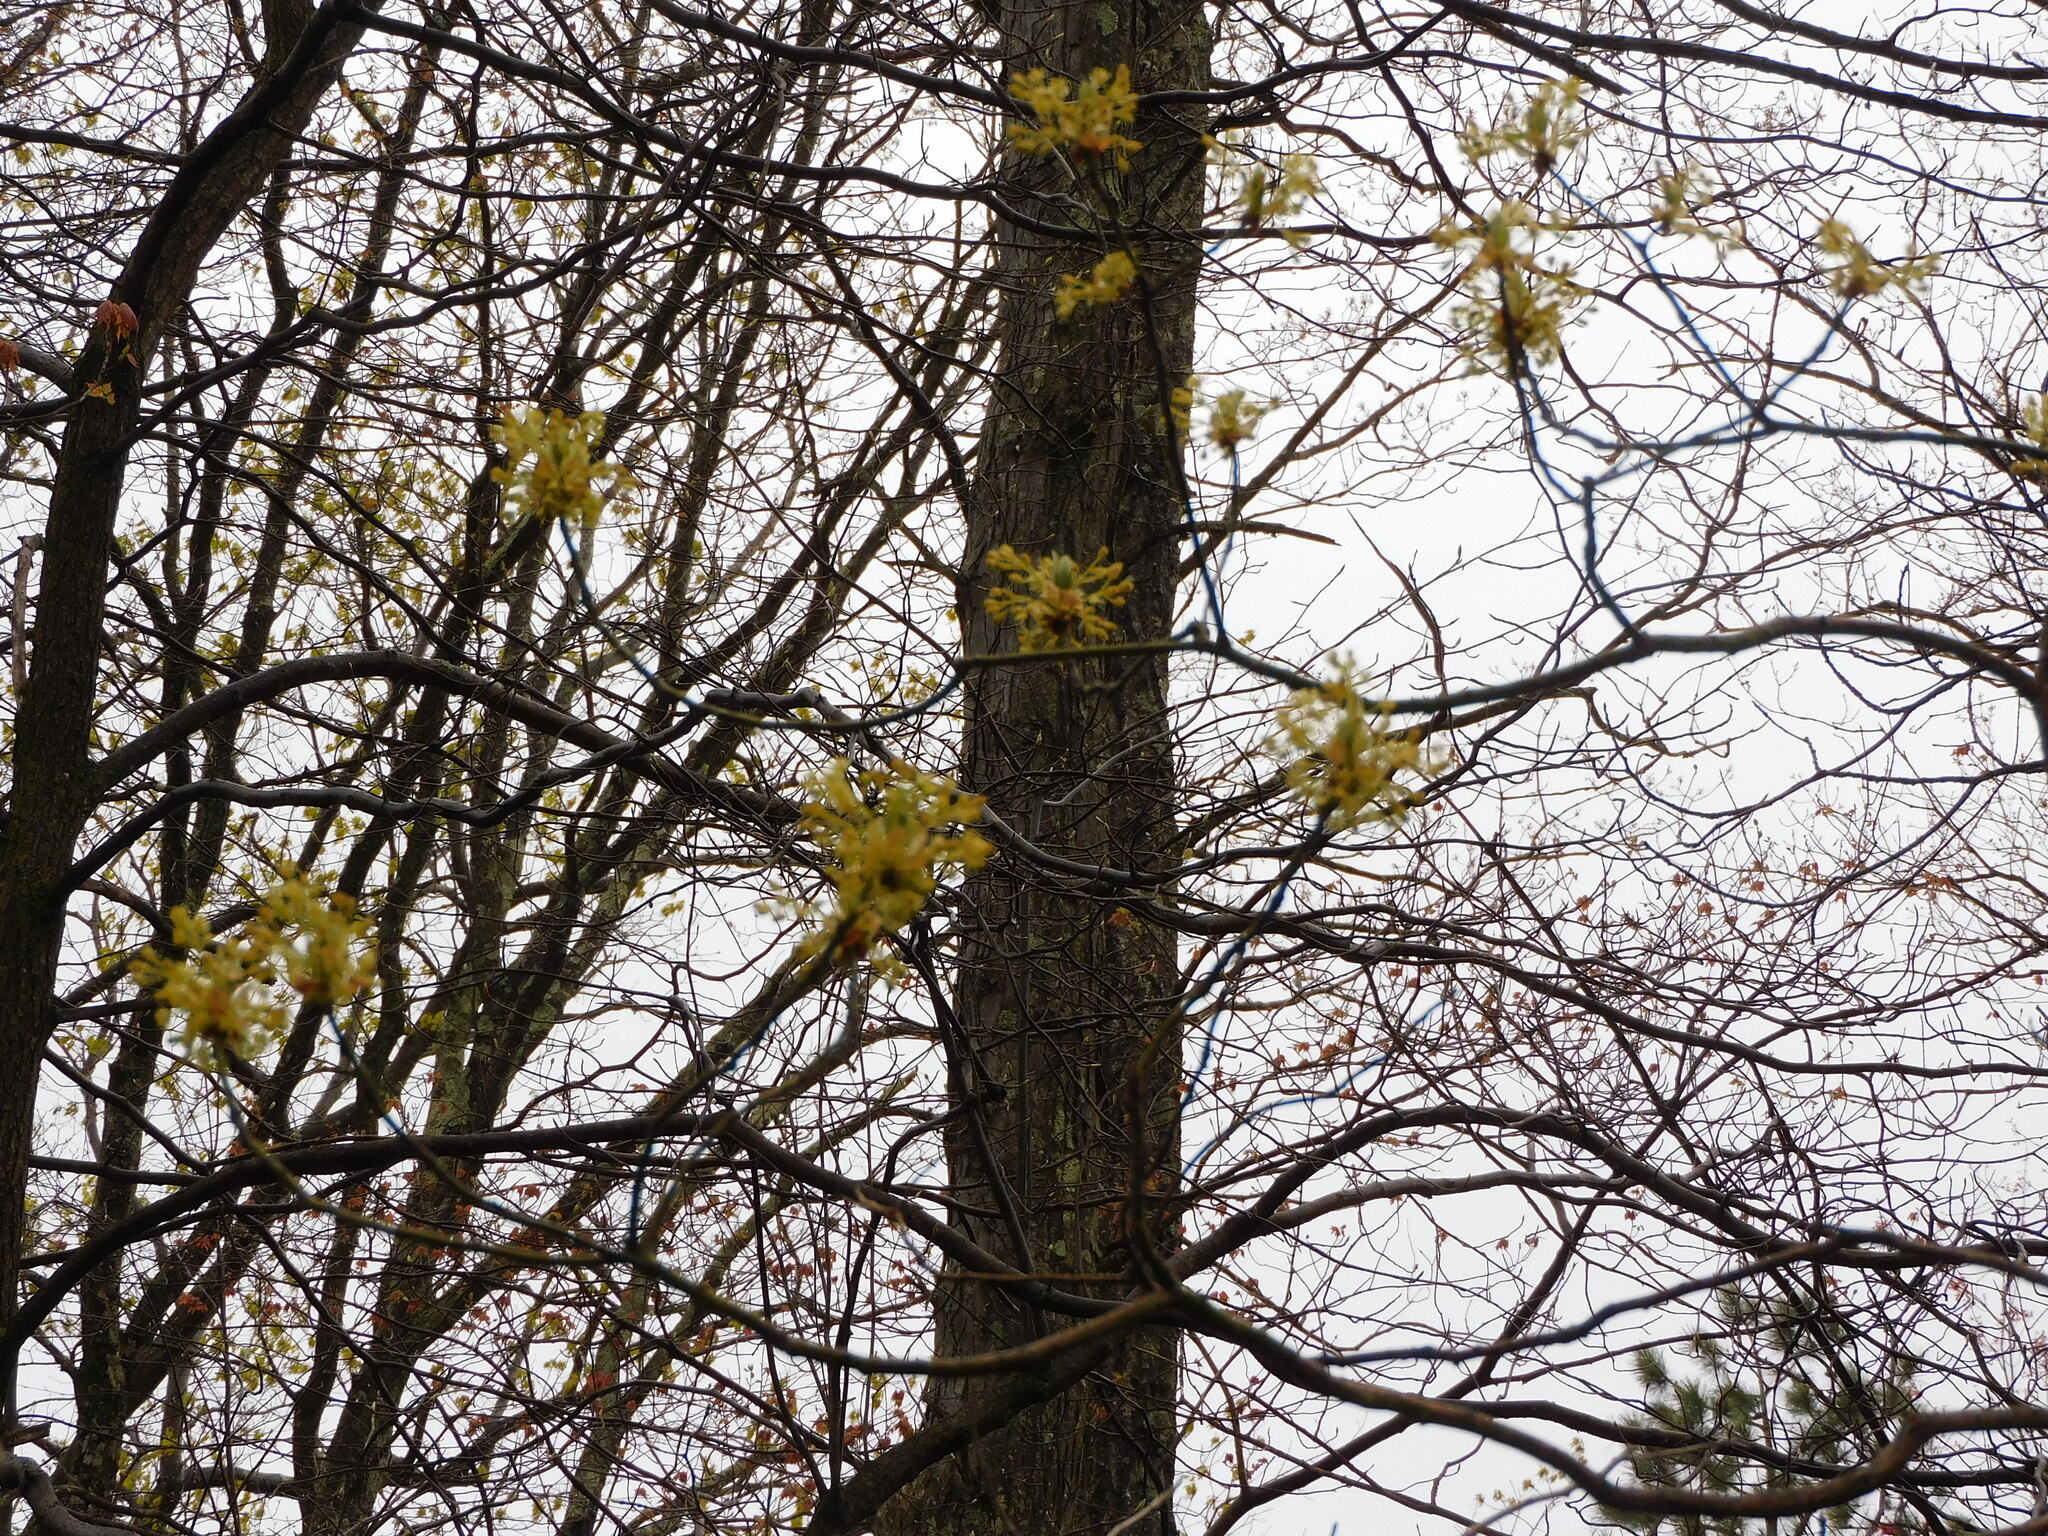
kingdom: Plantae
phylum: Tracheophyta
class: Magnoliopsida
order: Laurales
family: Lauraceae
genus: Sassafras
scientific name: Sassafras albidum
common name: Sassafras
